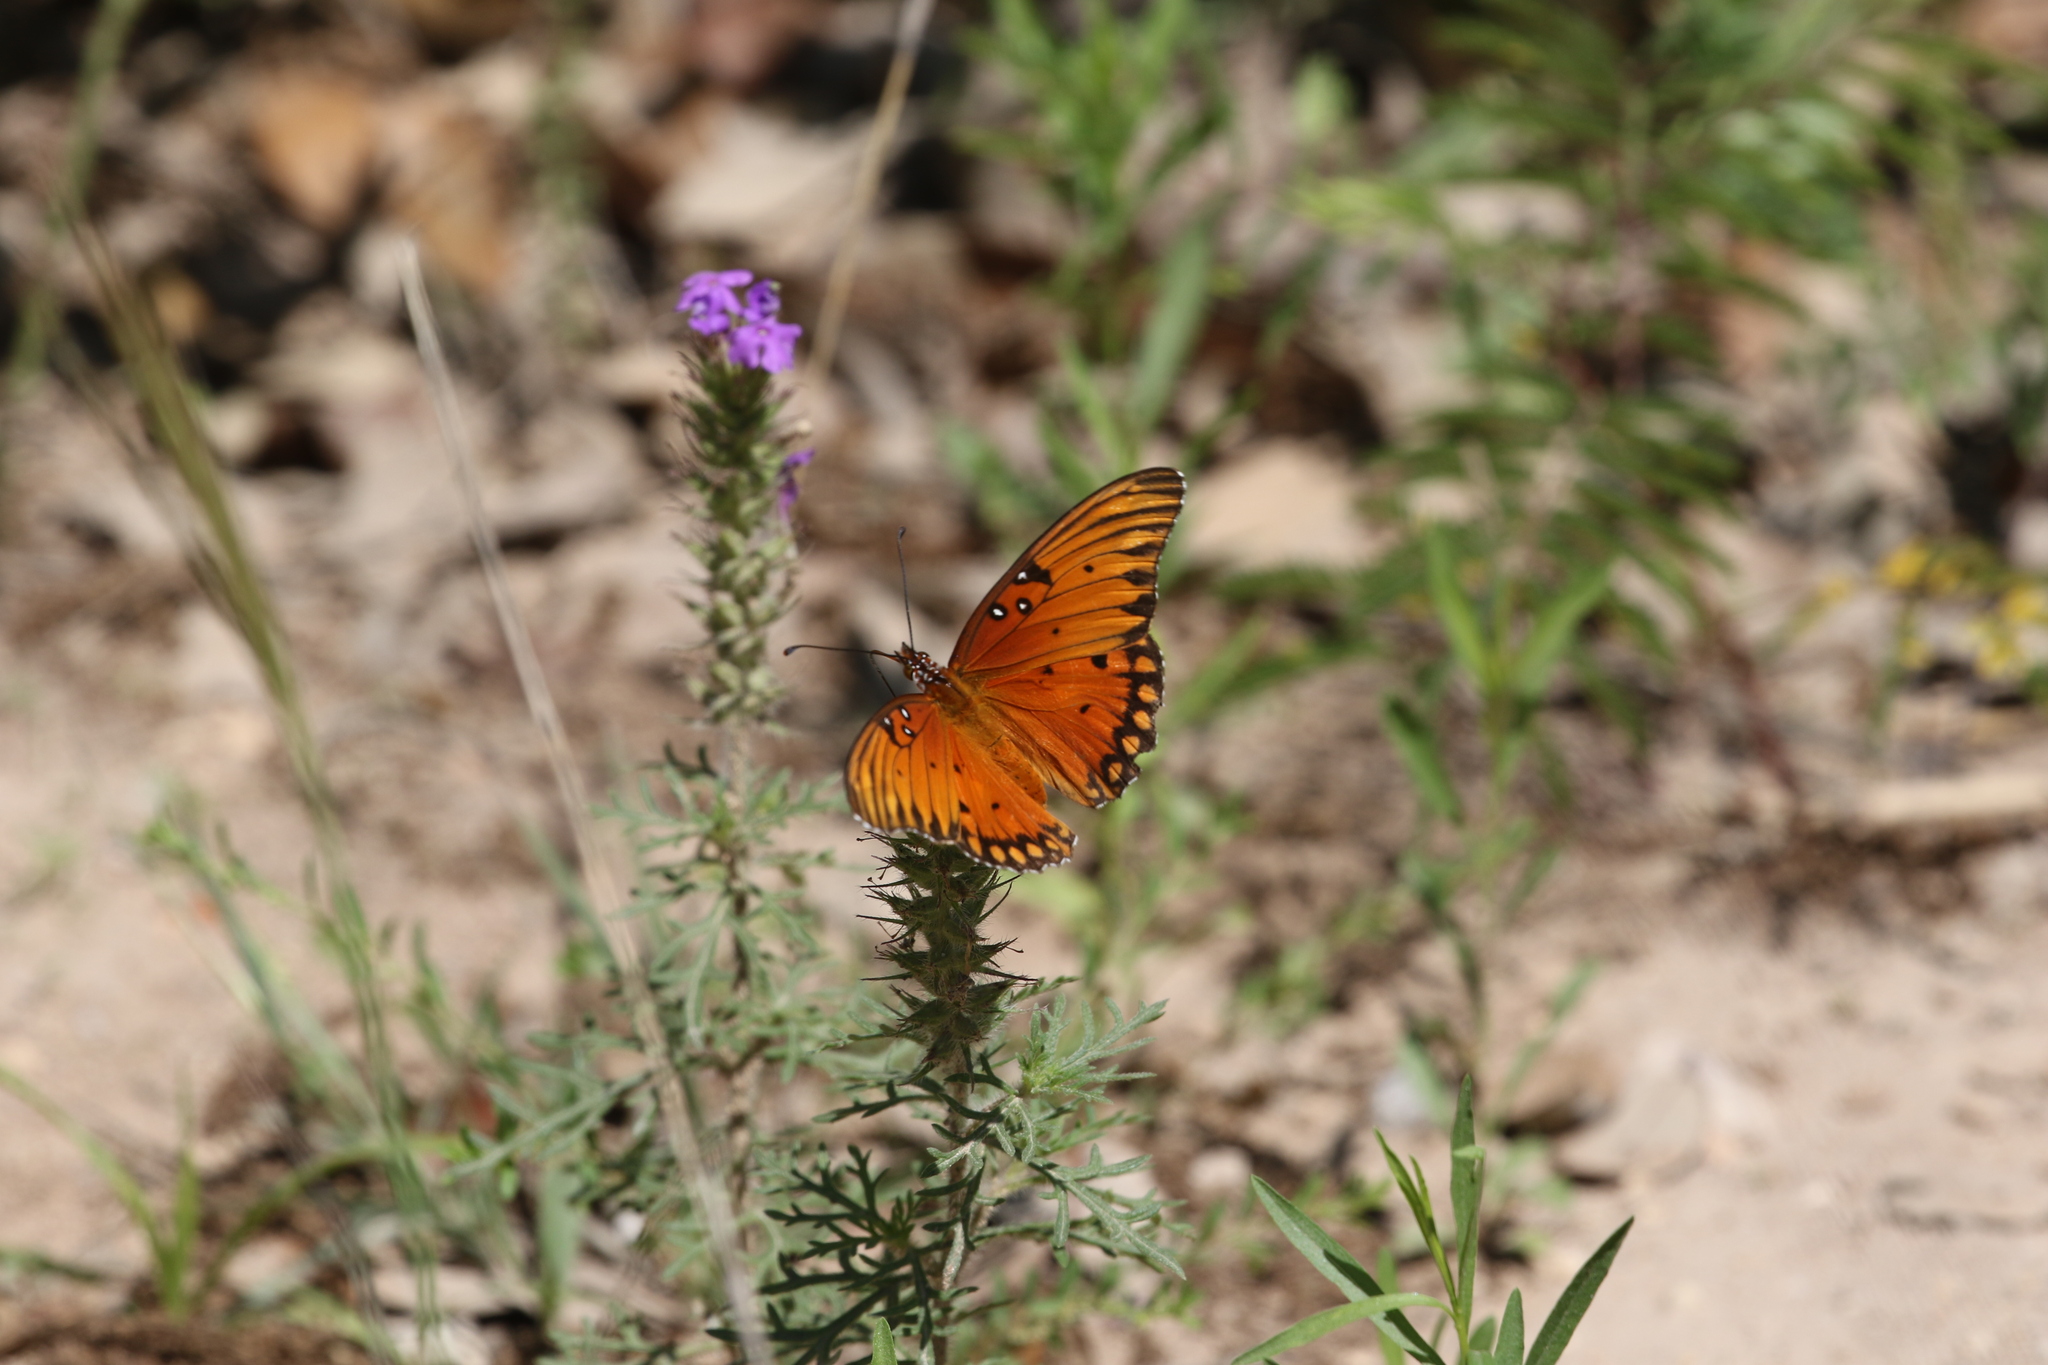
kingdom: Animalia
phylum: Arthropoda
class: Insecta
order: Lepidoptera
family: Nymphalidae
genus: Dione
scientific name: Dione vanillae
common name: Gulf fritillary
